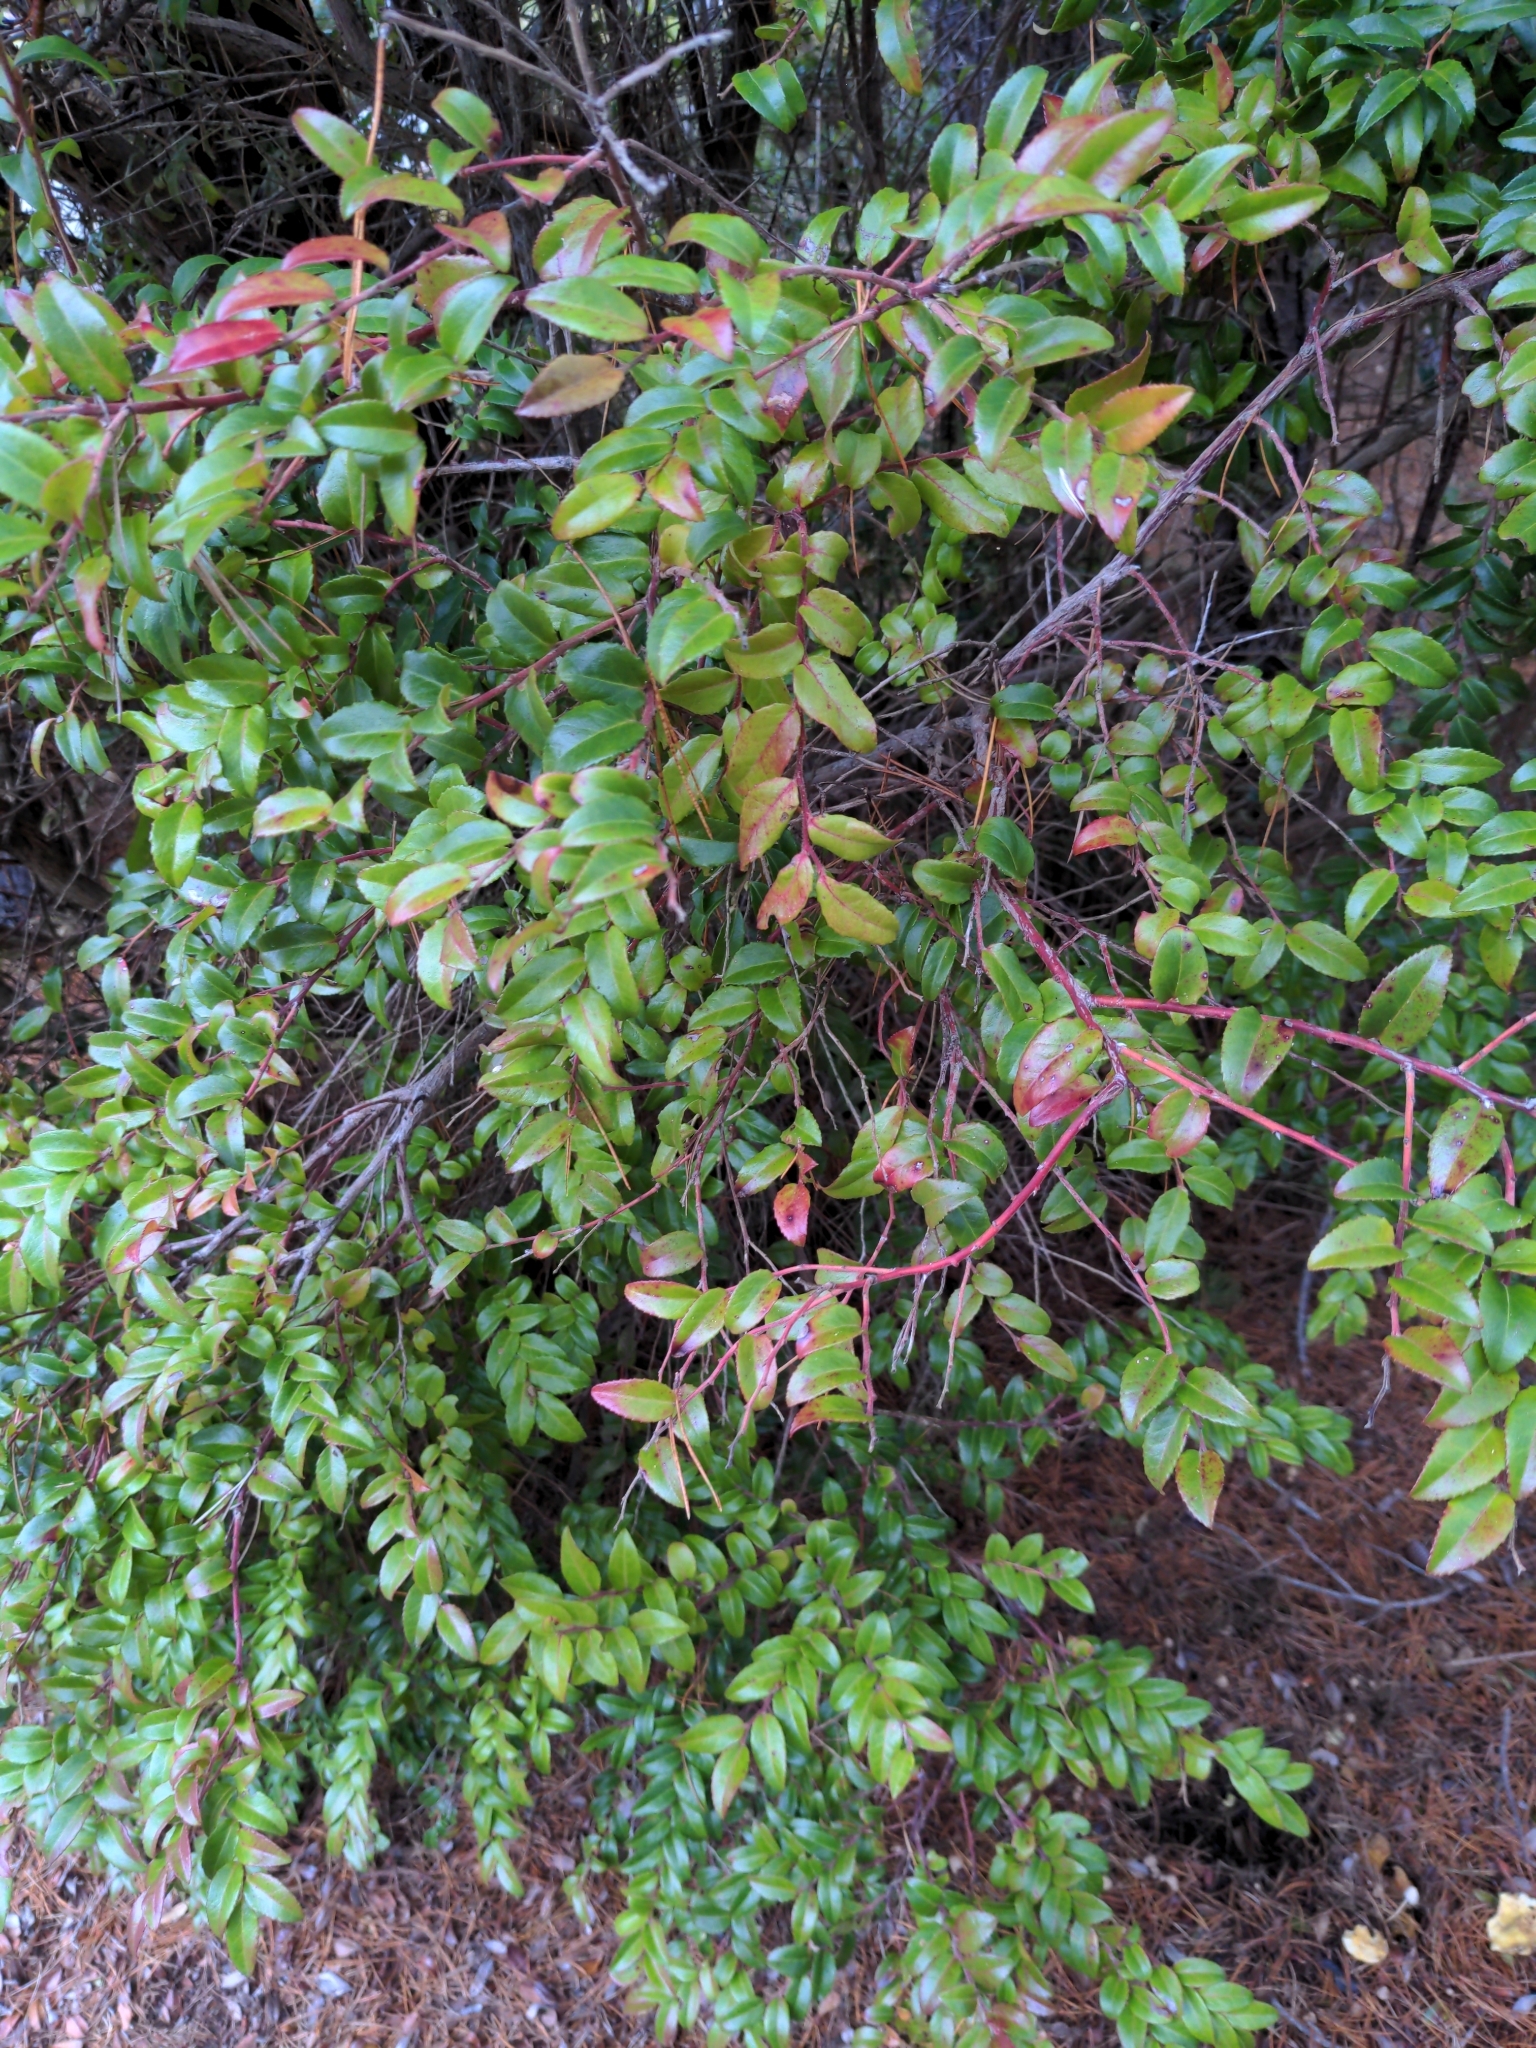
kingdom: Plantae
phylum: Tracheophyta
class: Magnoliopsida
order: Ericales
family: Ericaceae
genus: Vaccinium
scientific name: Vaccinium ovatum
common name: California-huckleberry
